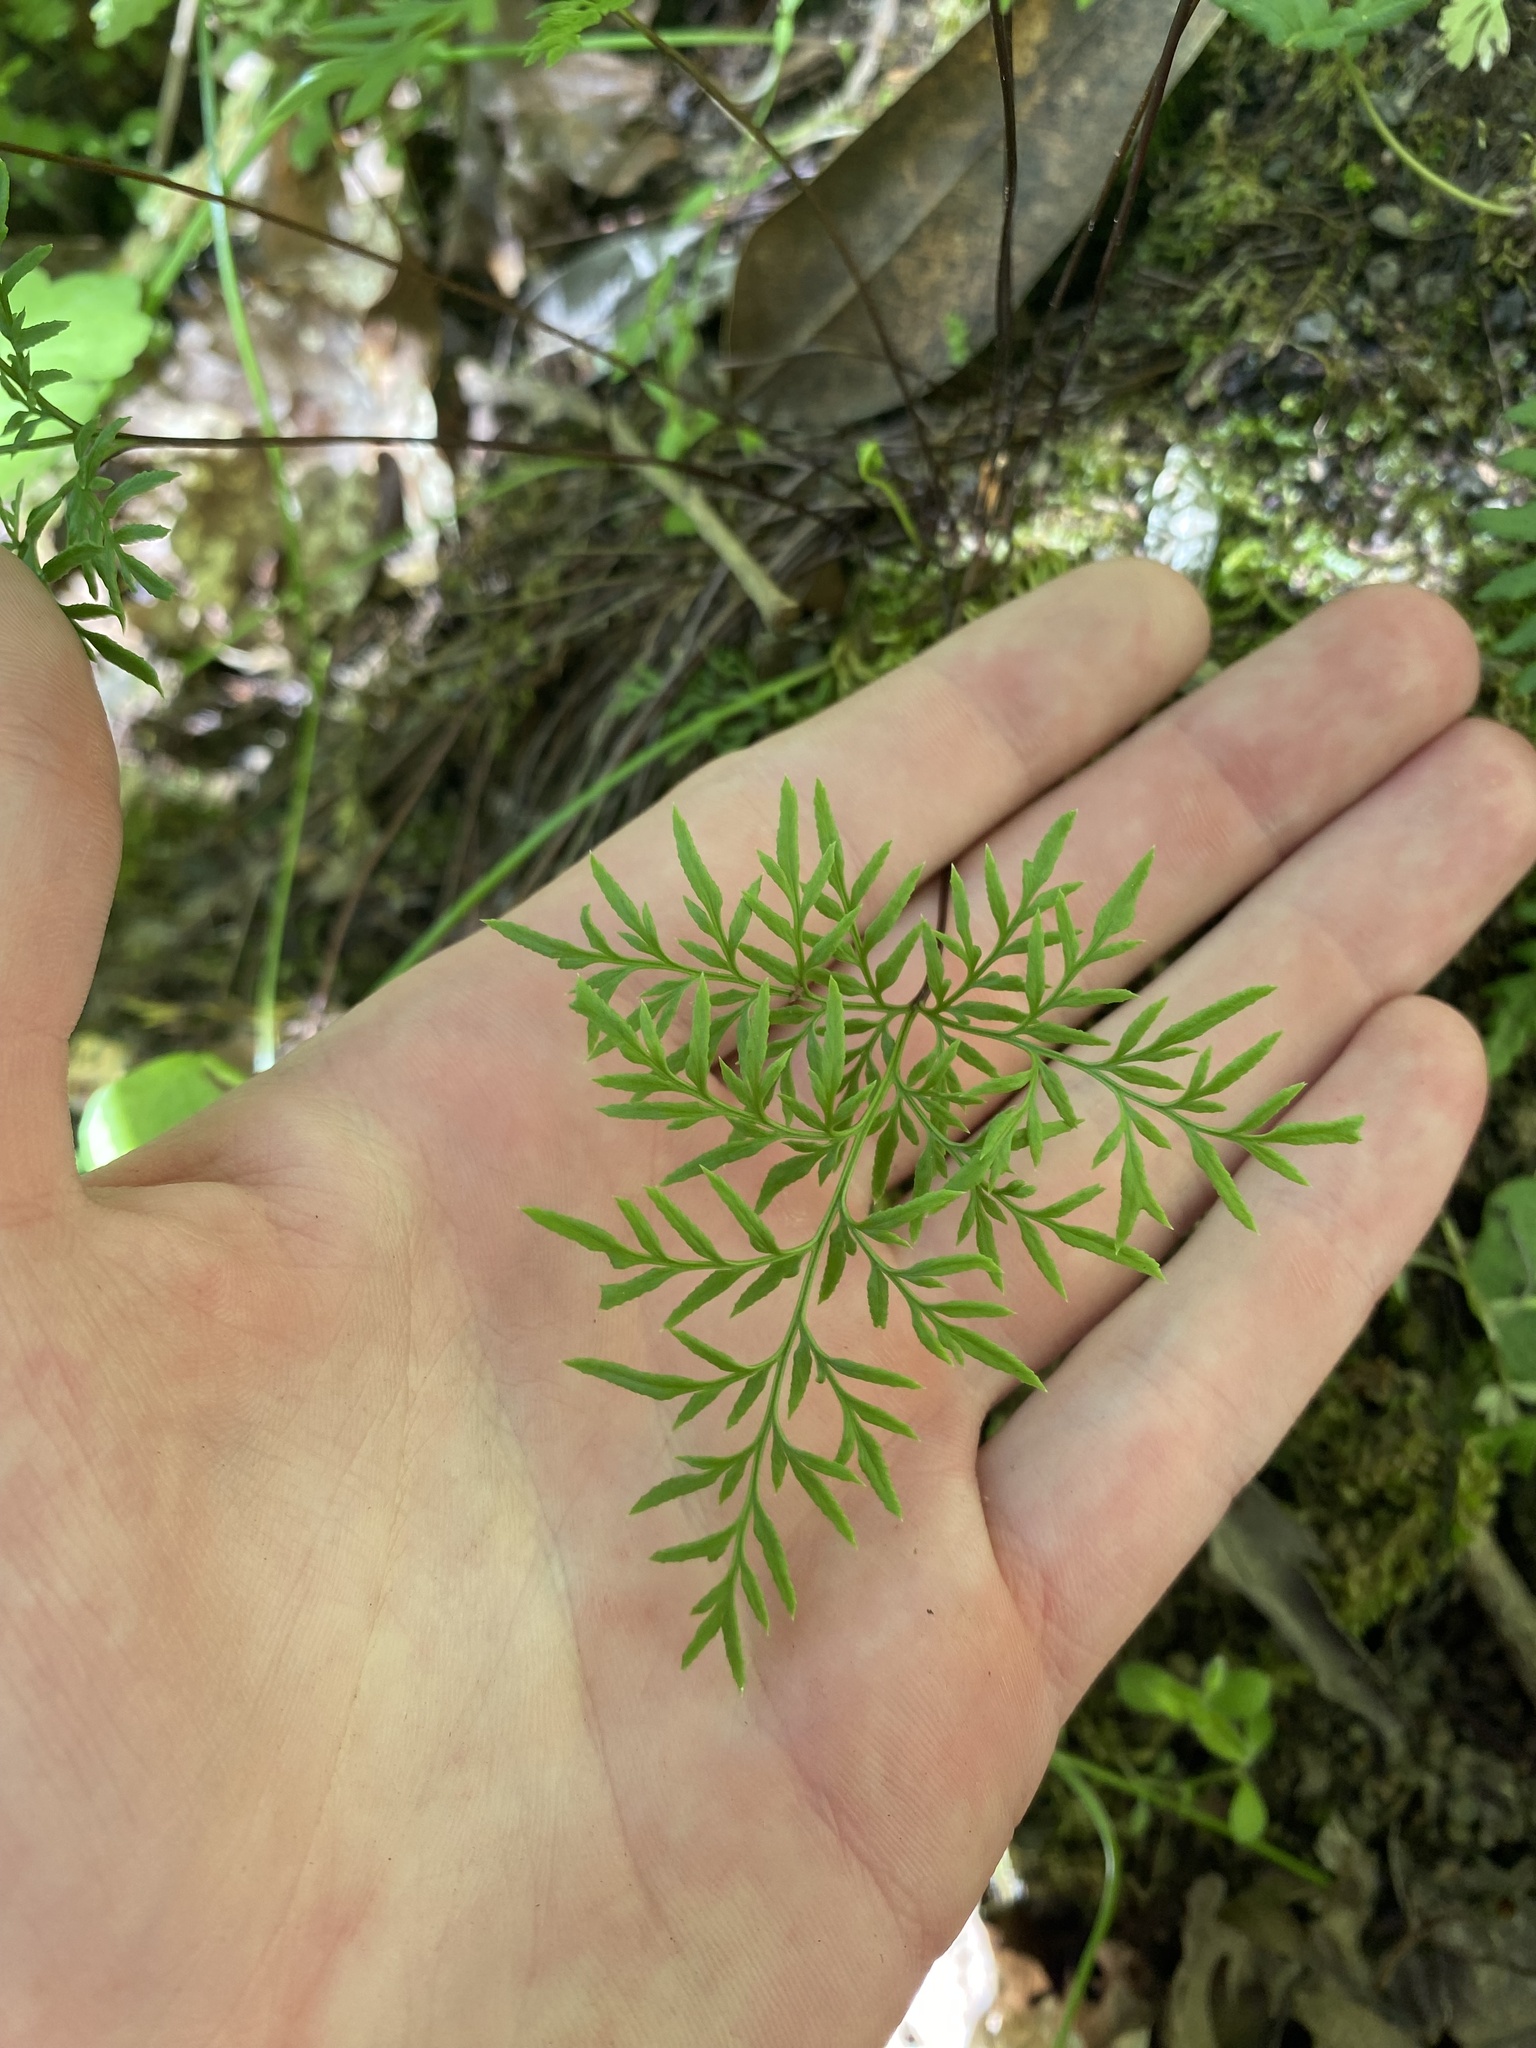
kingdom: Plantae
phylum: Tracheophyta
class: Polypodiopsida
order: Polypodiales
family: Pteridaceae
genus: Aspidotis
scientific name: Aspidotis densa
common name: Indian's dream
